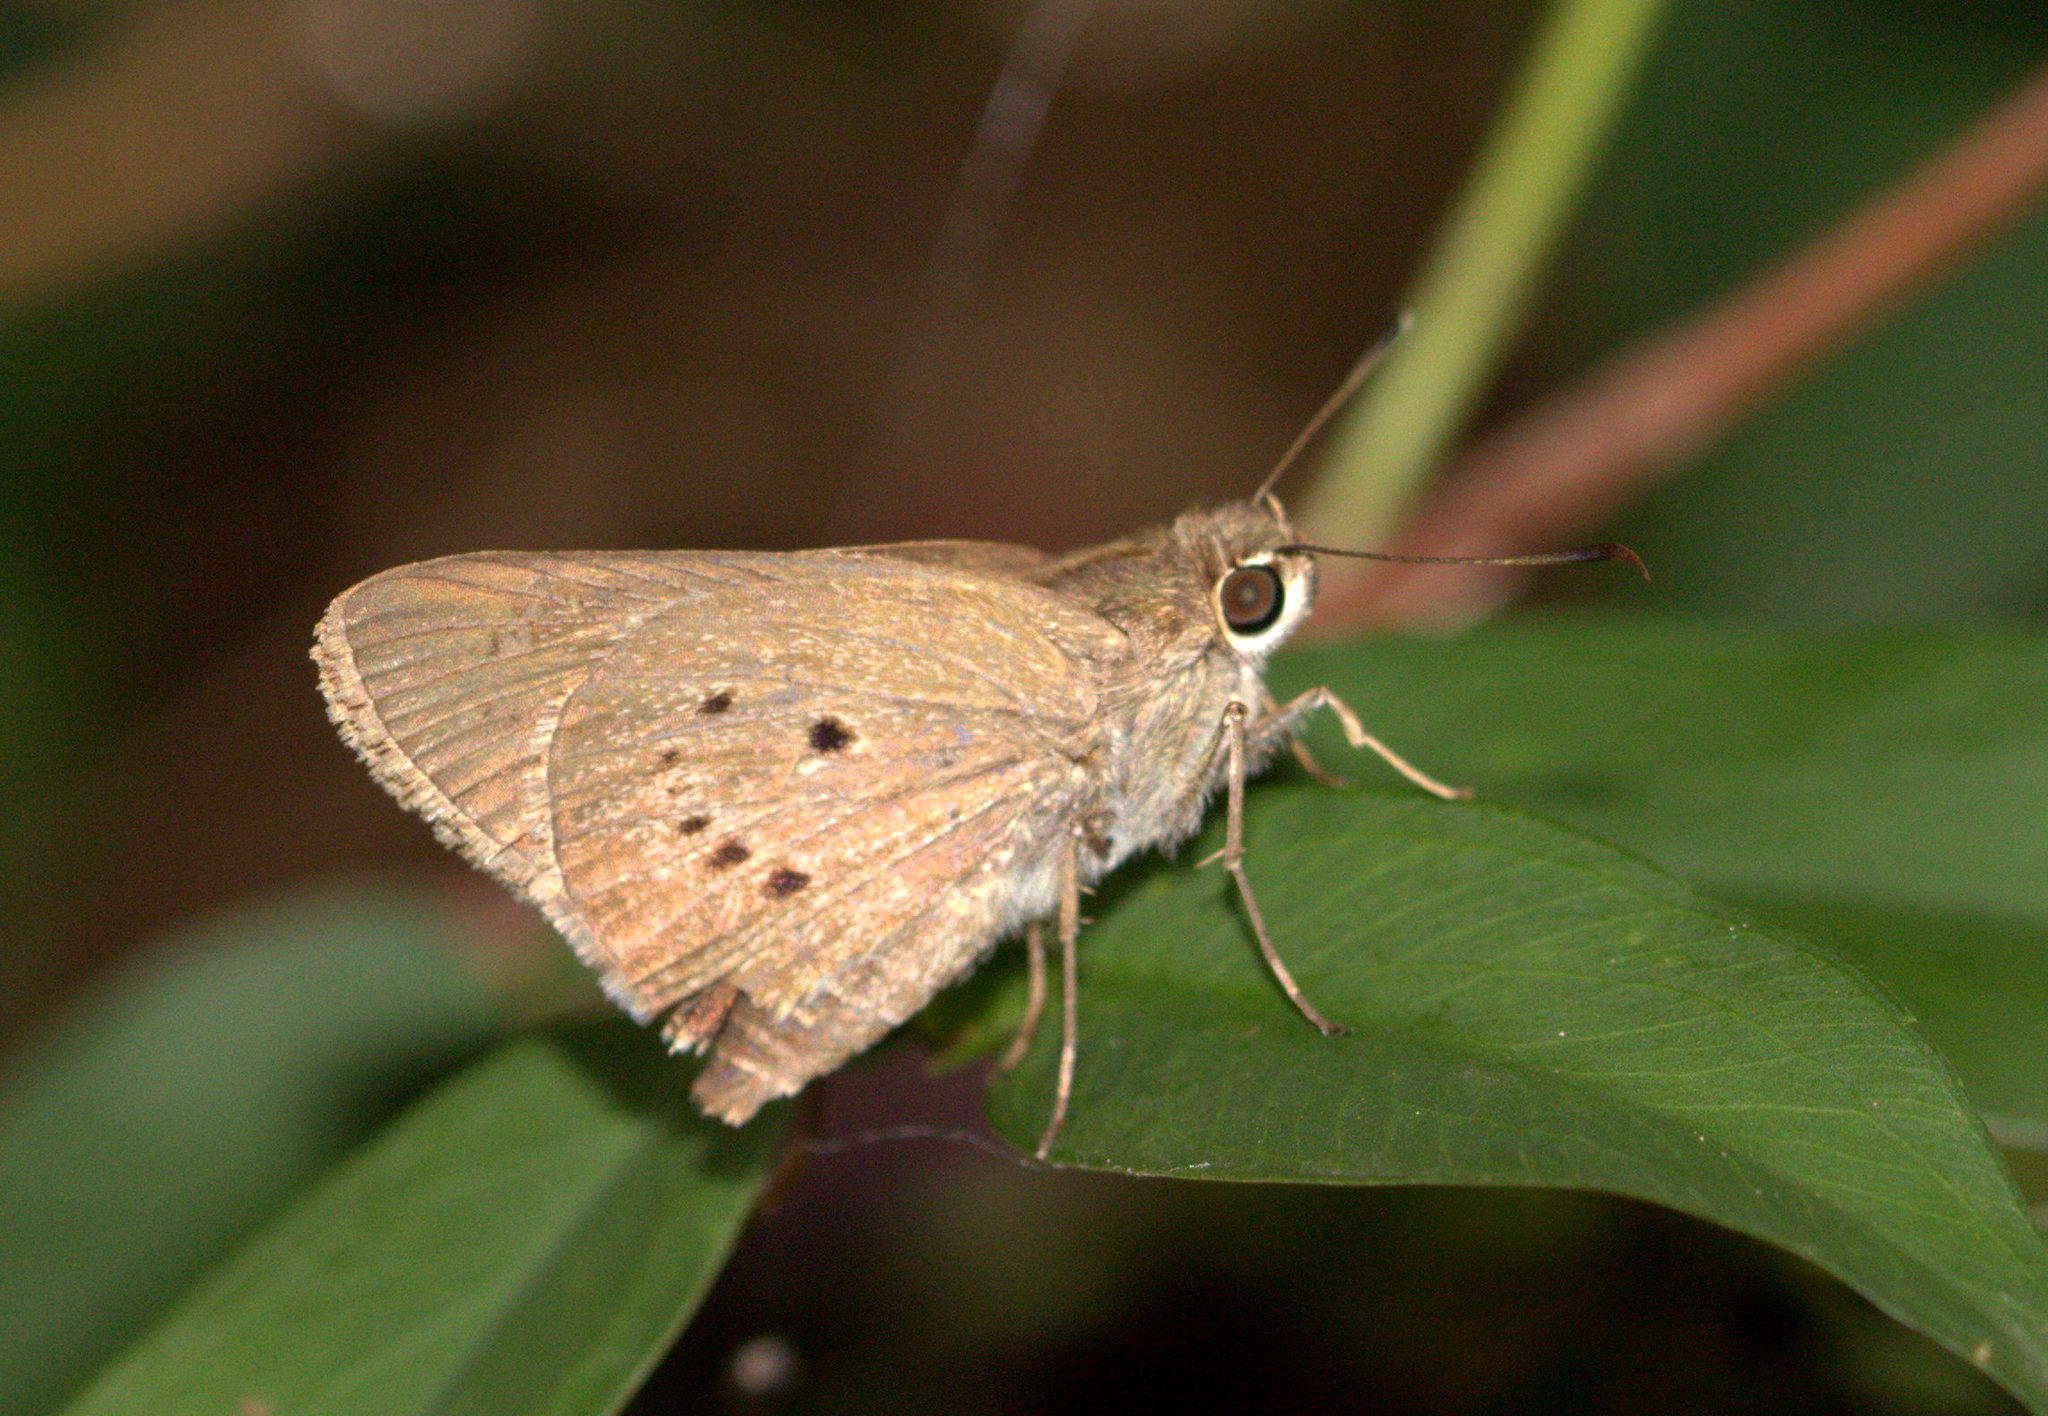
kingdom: Animalia
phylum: Arthropoda
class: Insecta
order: Lepidoptera
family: Hesperiidae
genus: Suastus
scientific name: Suastus gremius
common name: Indian palm bob
